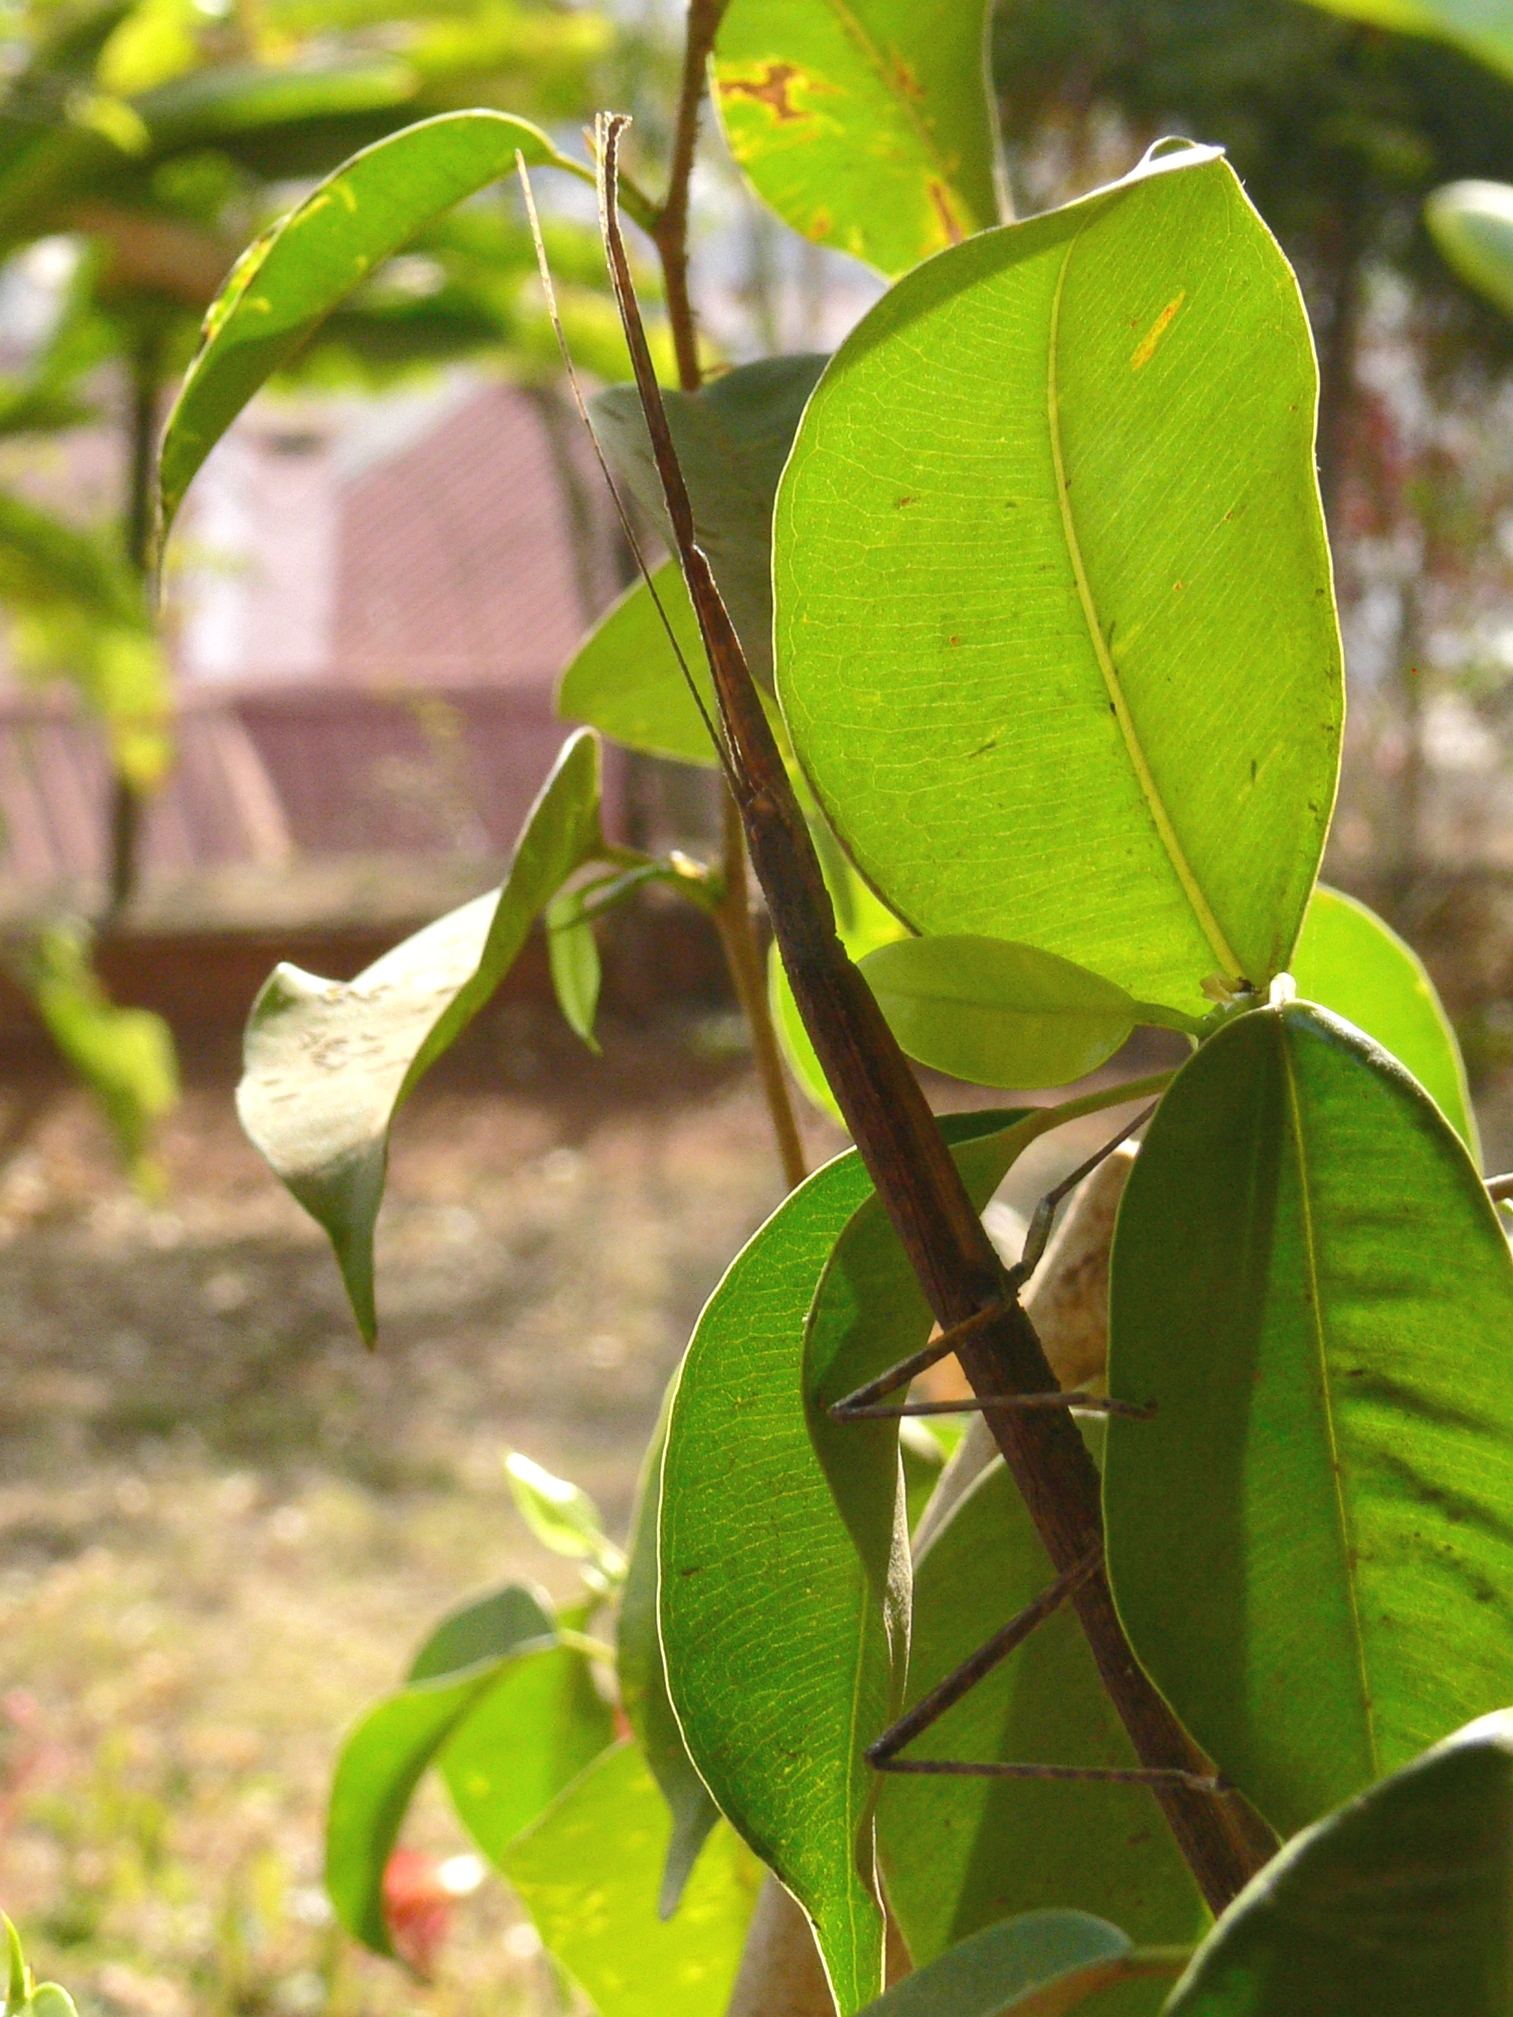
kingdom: Animalia
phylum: Arthropoda
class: Insecta
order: Phasmida
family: Lonchodidae
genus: Carausius
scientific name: Carausius morosus
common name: Indian stick insect
